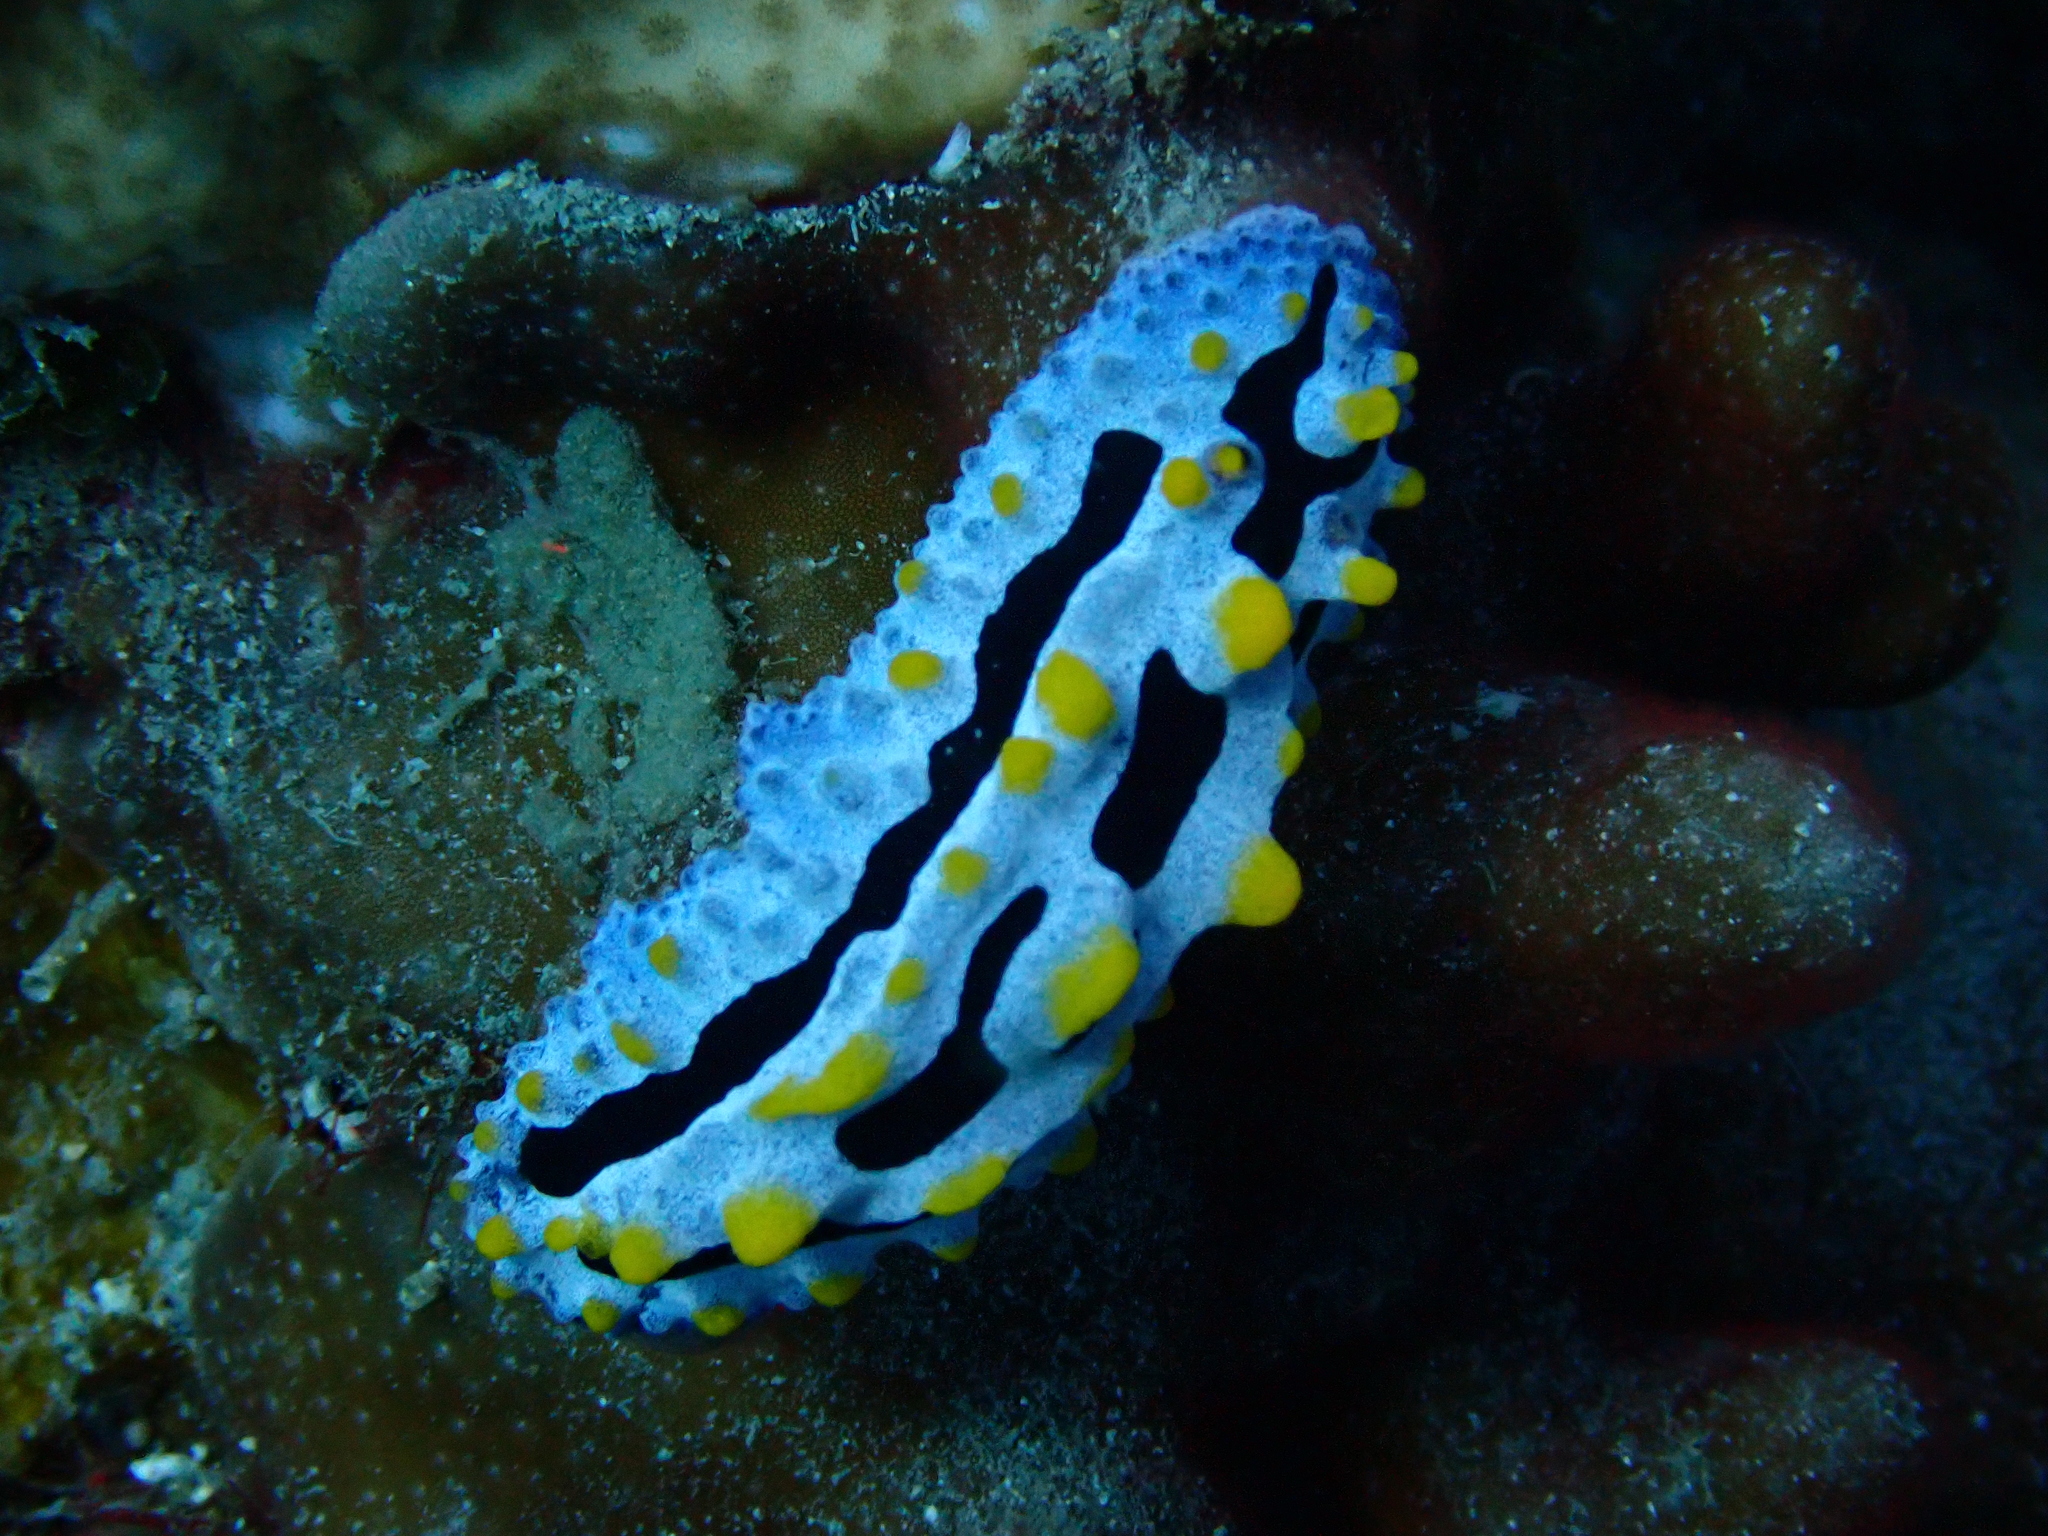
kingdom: Animalia
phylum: Mollusca
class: Gastropoda
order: Nudibranchia
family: Phyllidiidae
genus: Phyllidia
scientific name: Phyllidia coelestis
